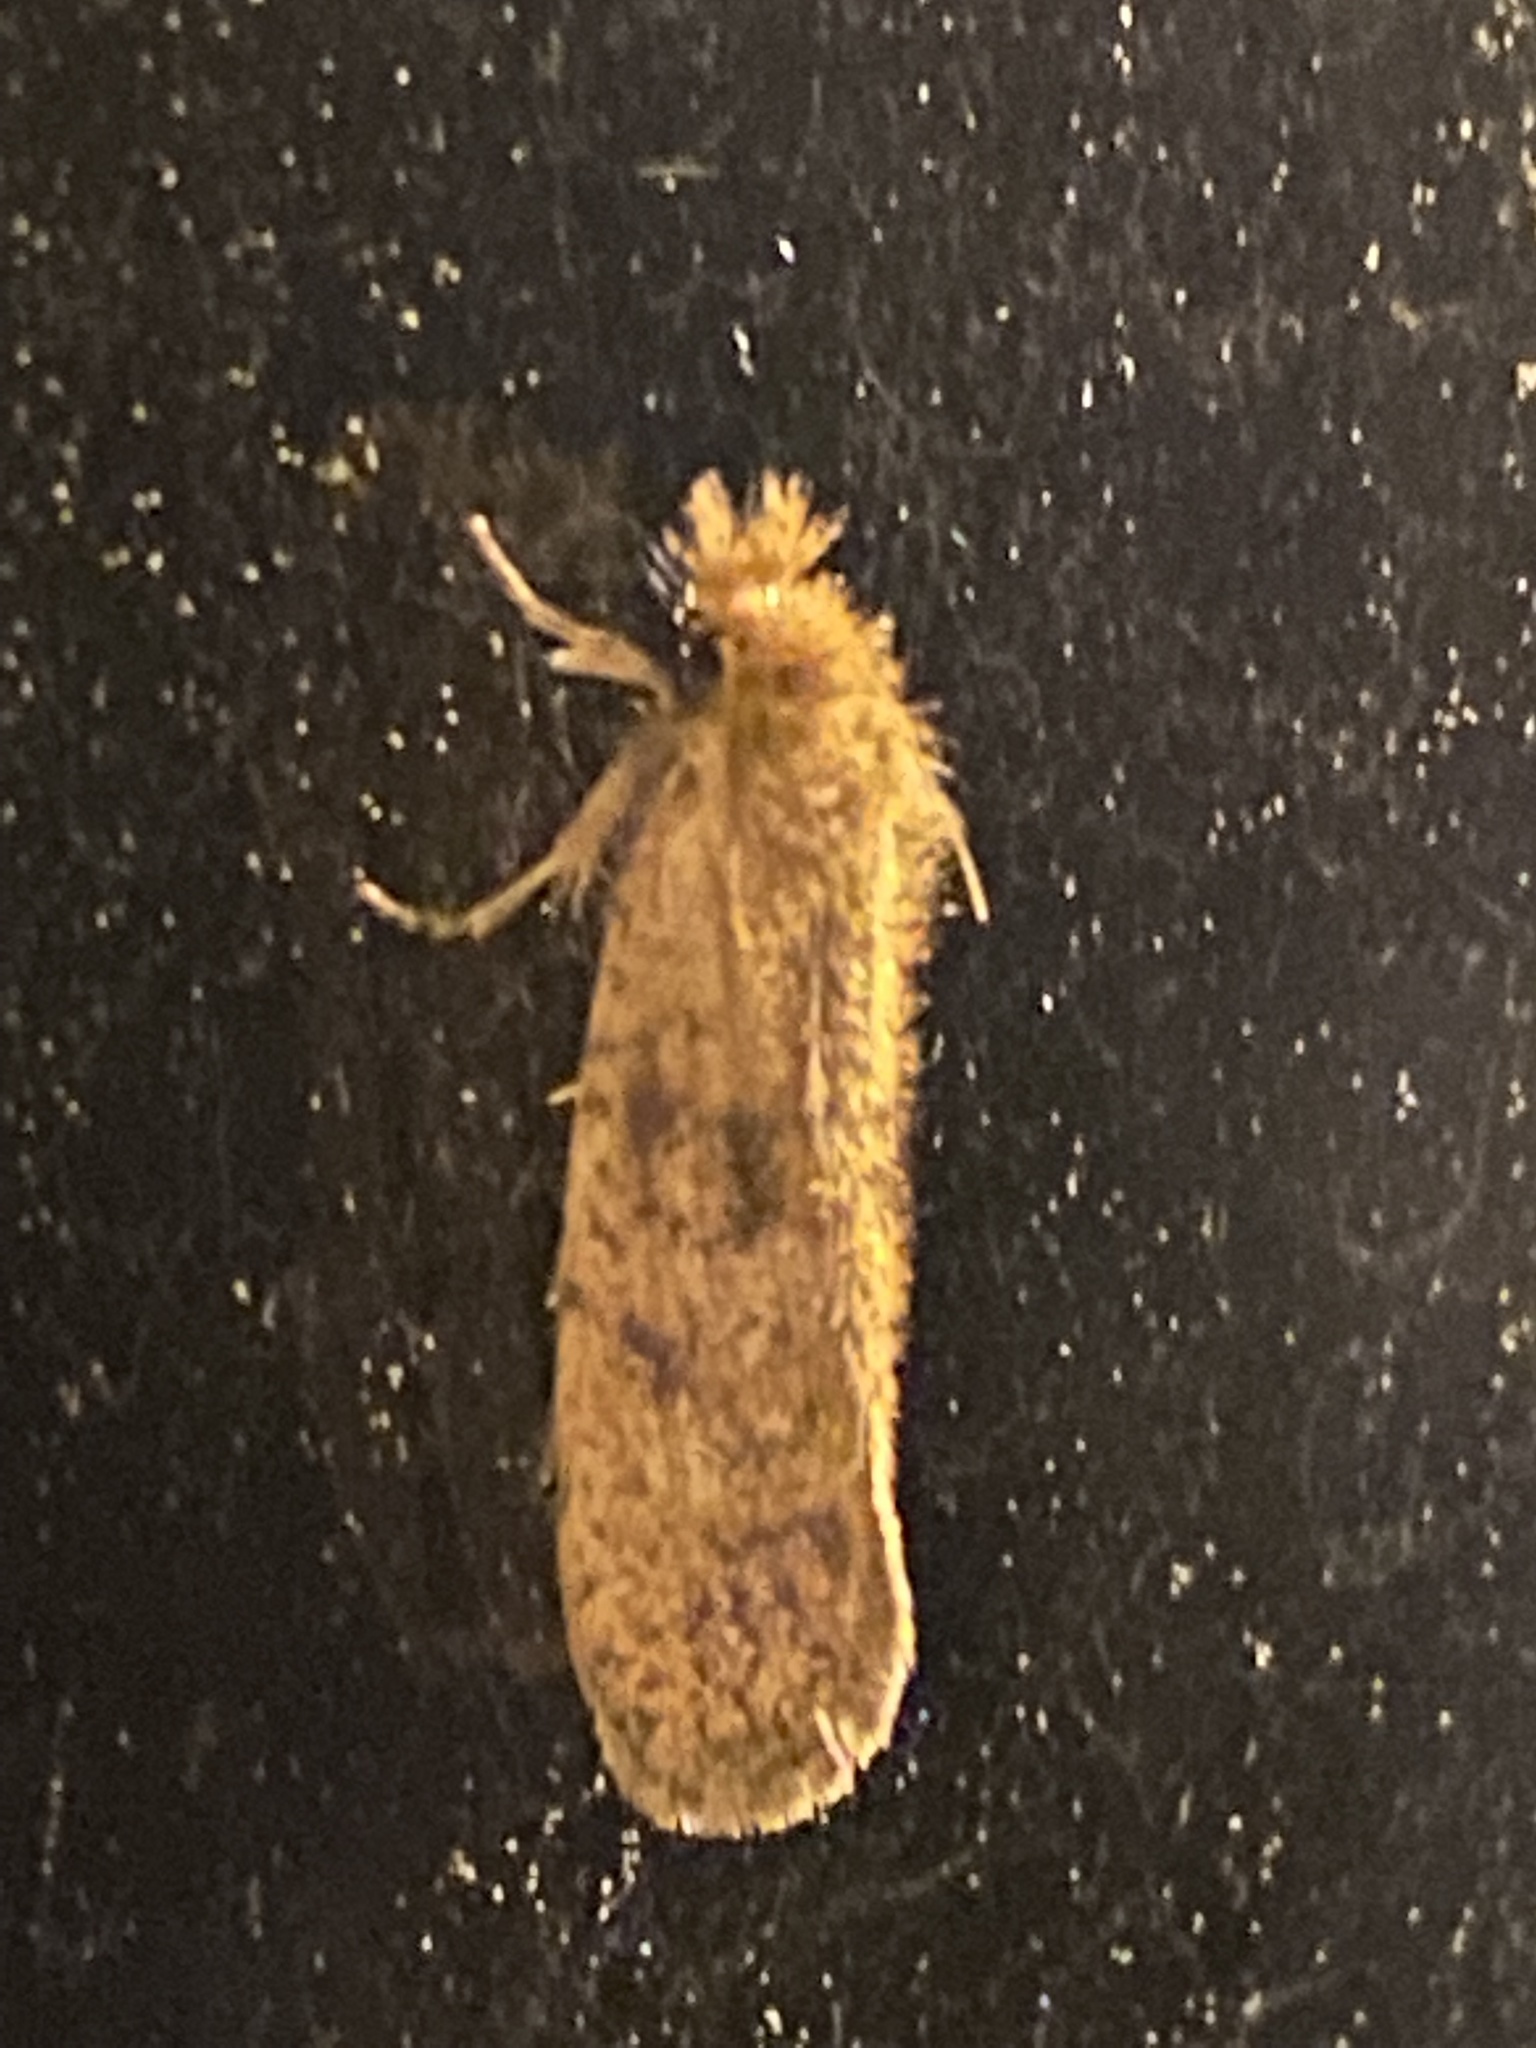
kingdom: Animalia
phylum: Arthropoda
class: Insecta
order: Lepidoptera
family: Tineidae
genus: Acrolophus
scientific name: Acrolophus propinqua
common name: Walsingham's grass tubeworm moth
